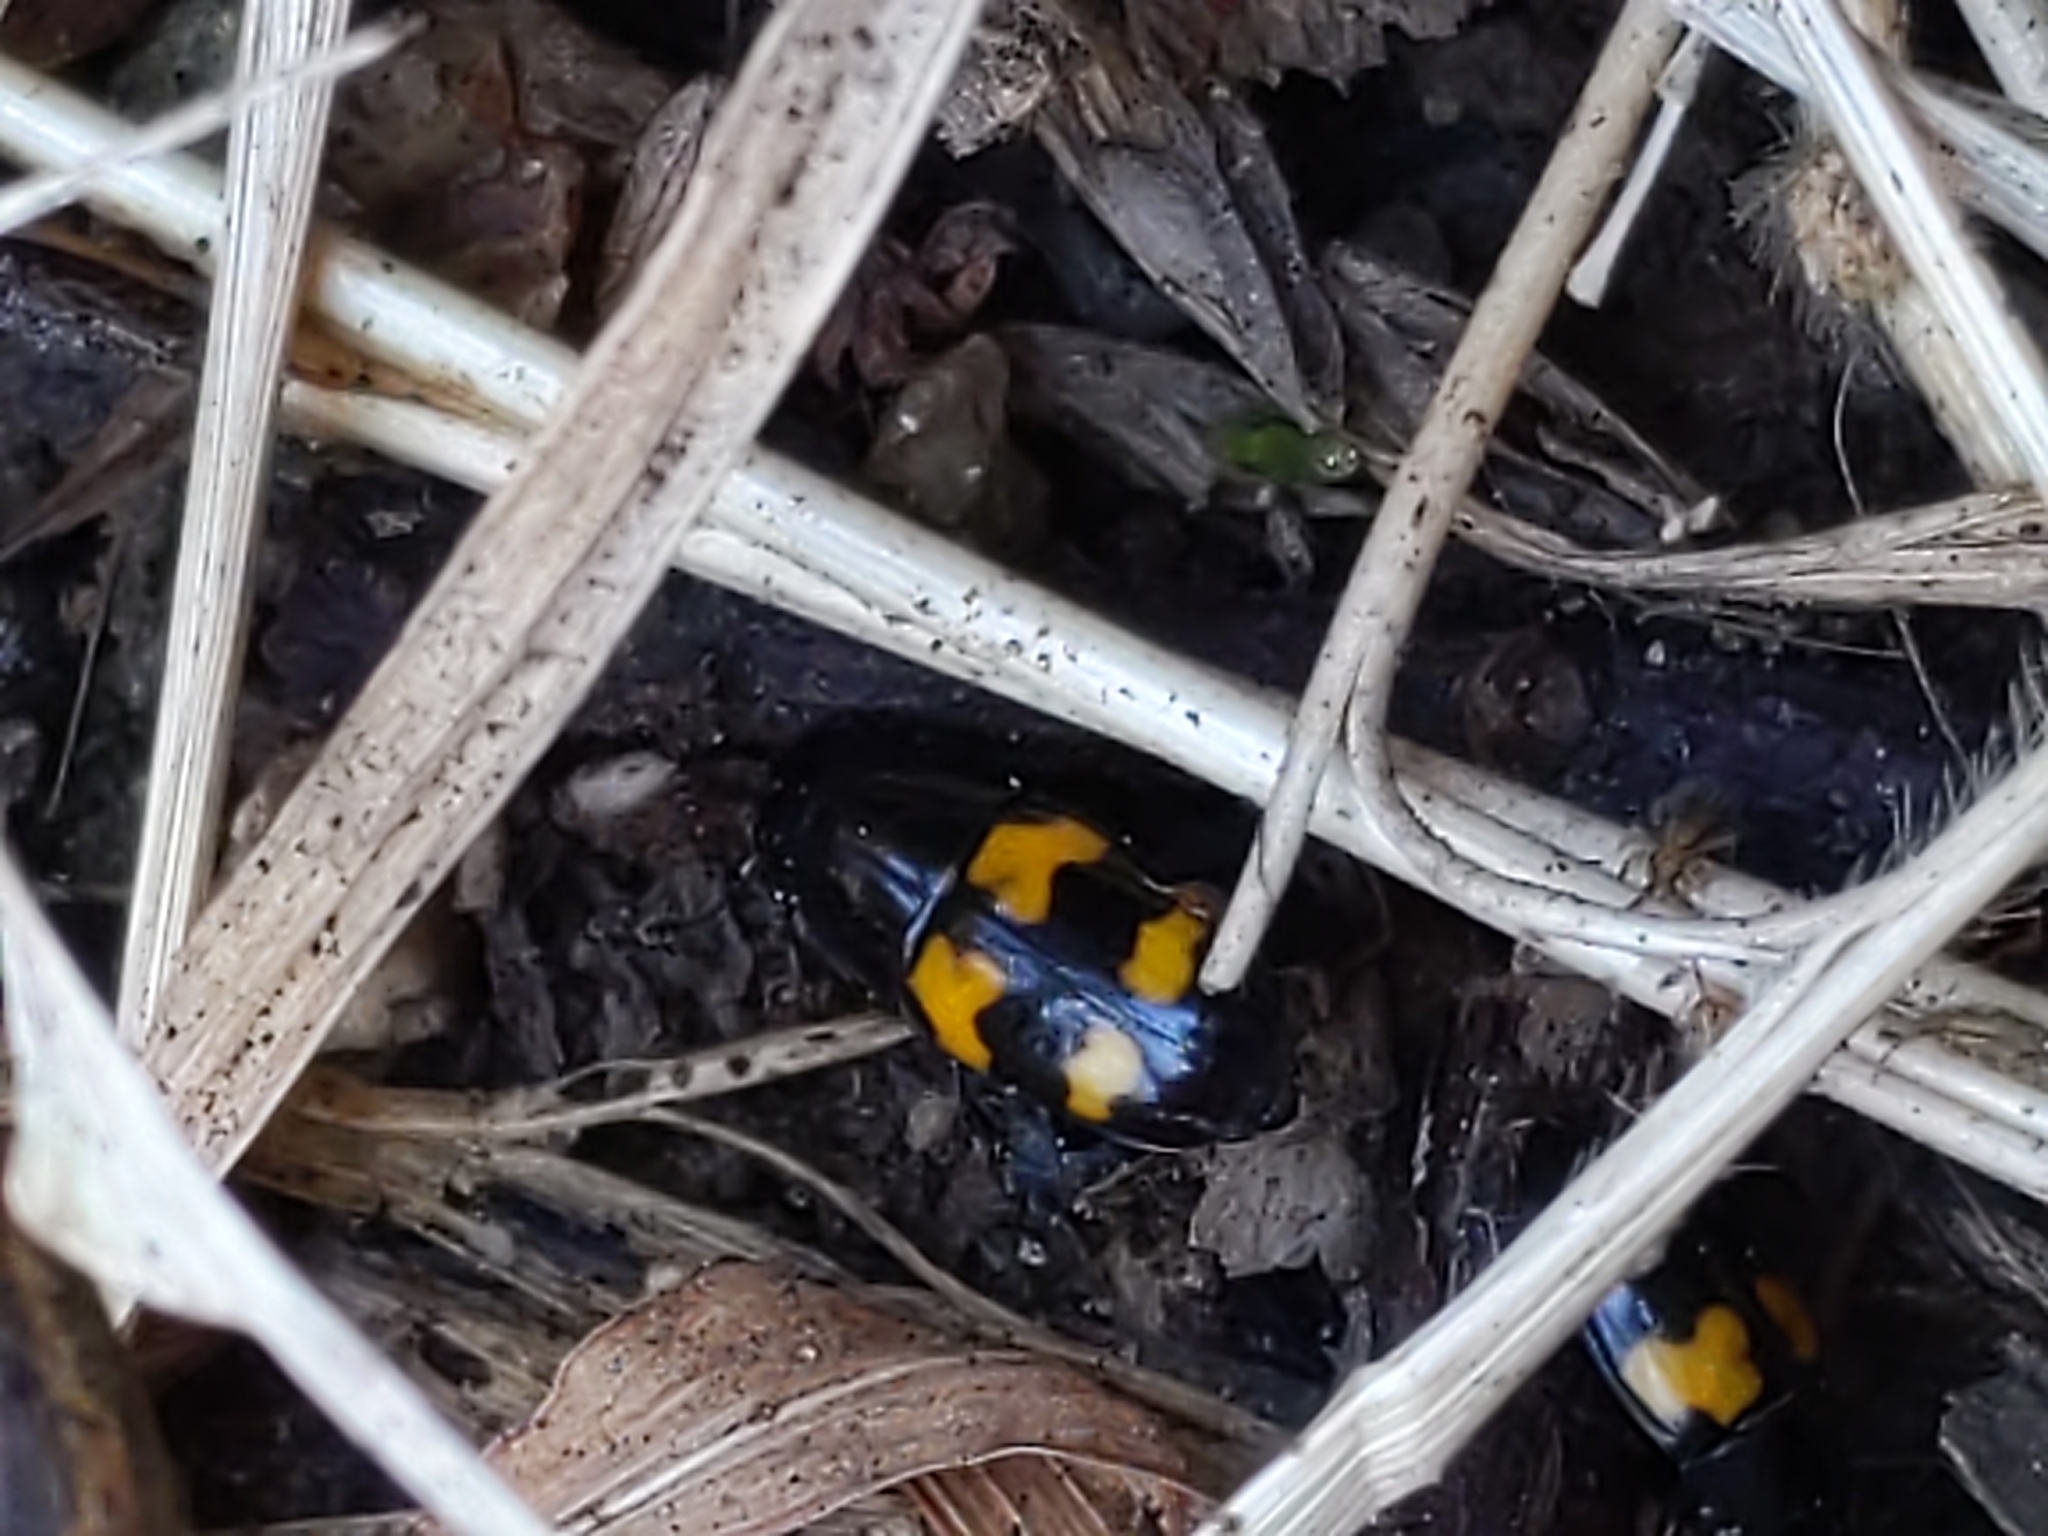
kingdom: Animalia
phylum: Arthropoda
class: Insecta
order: Coleoptera
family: Nitidulidae
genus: Glischrochilus
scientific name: Glischrochilus fasciatus
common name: Picnic beetle
